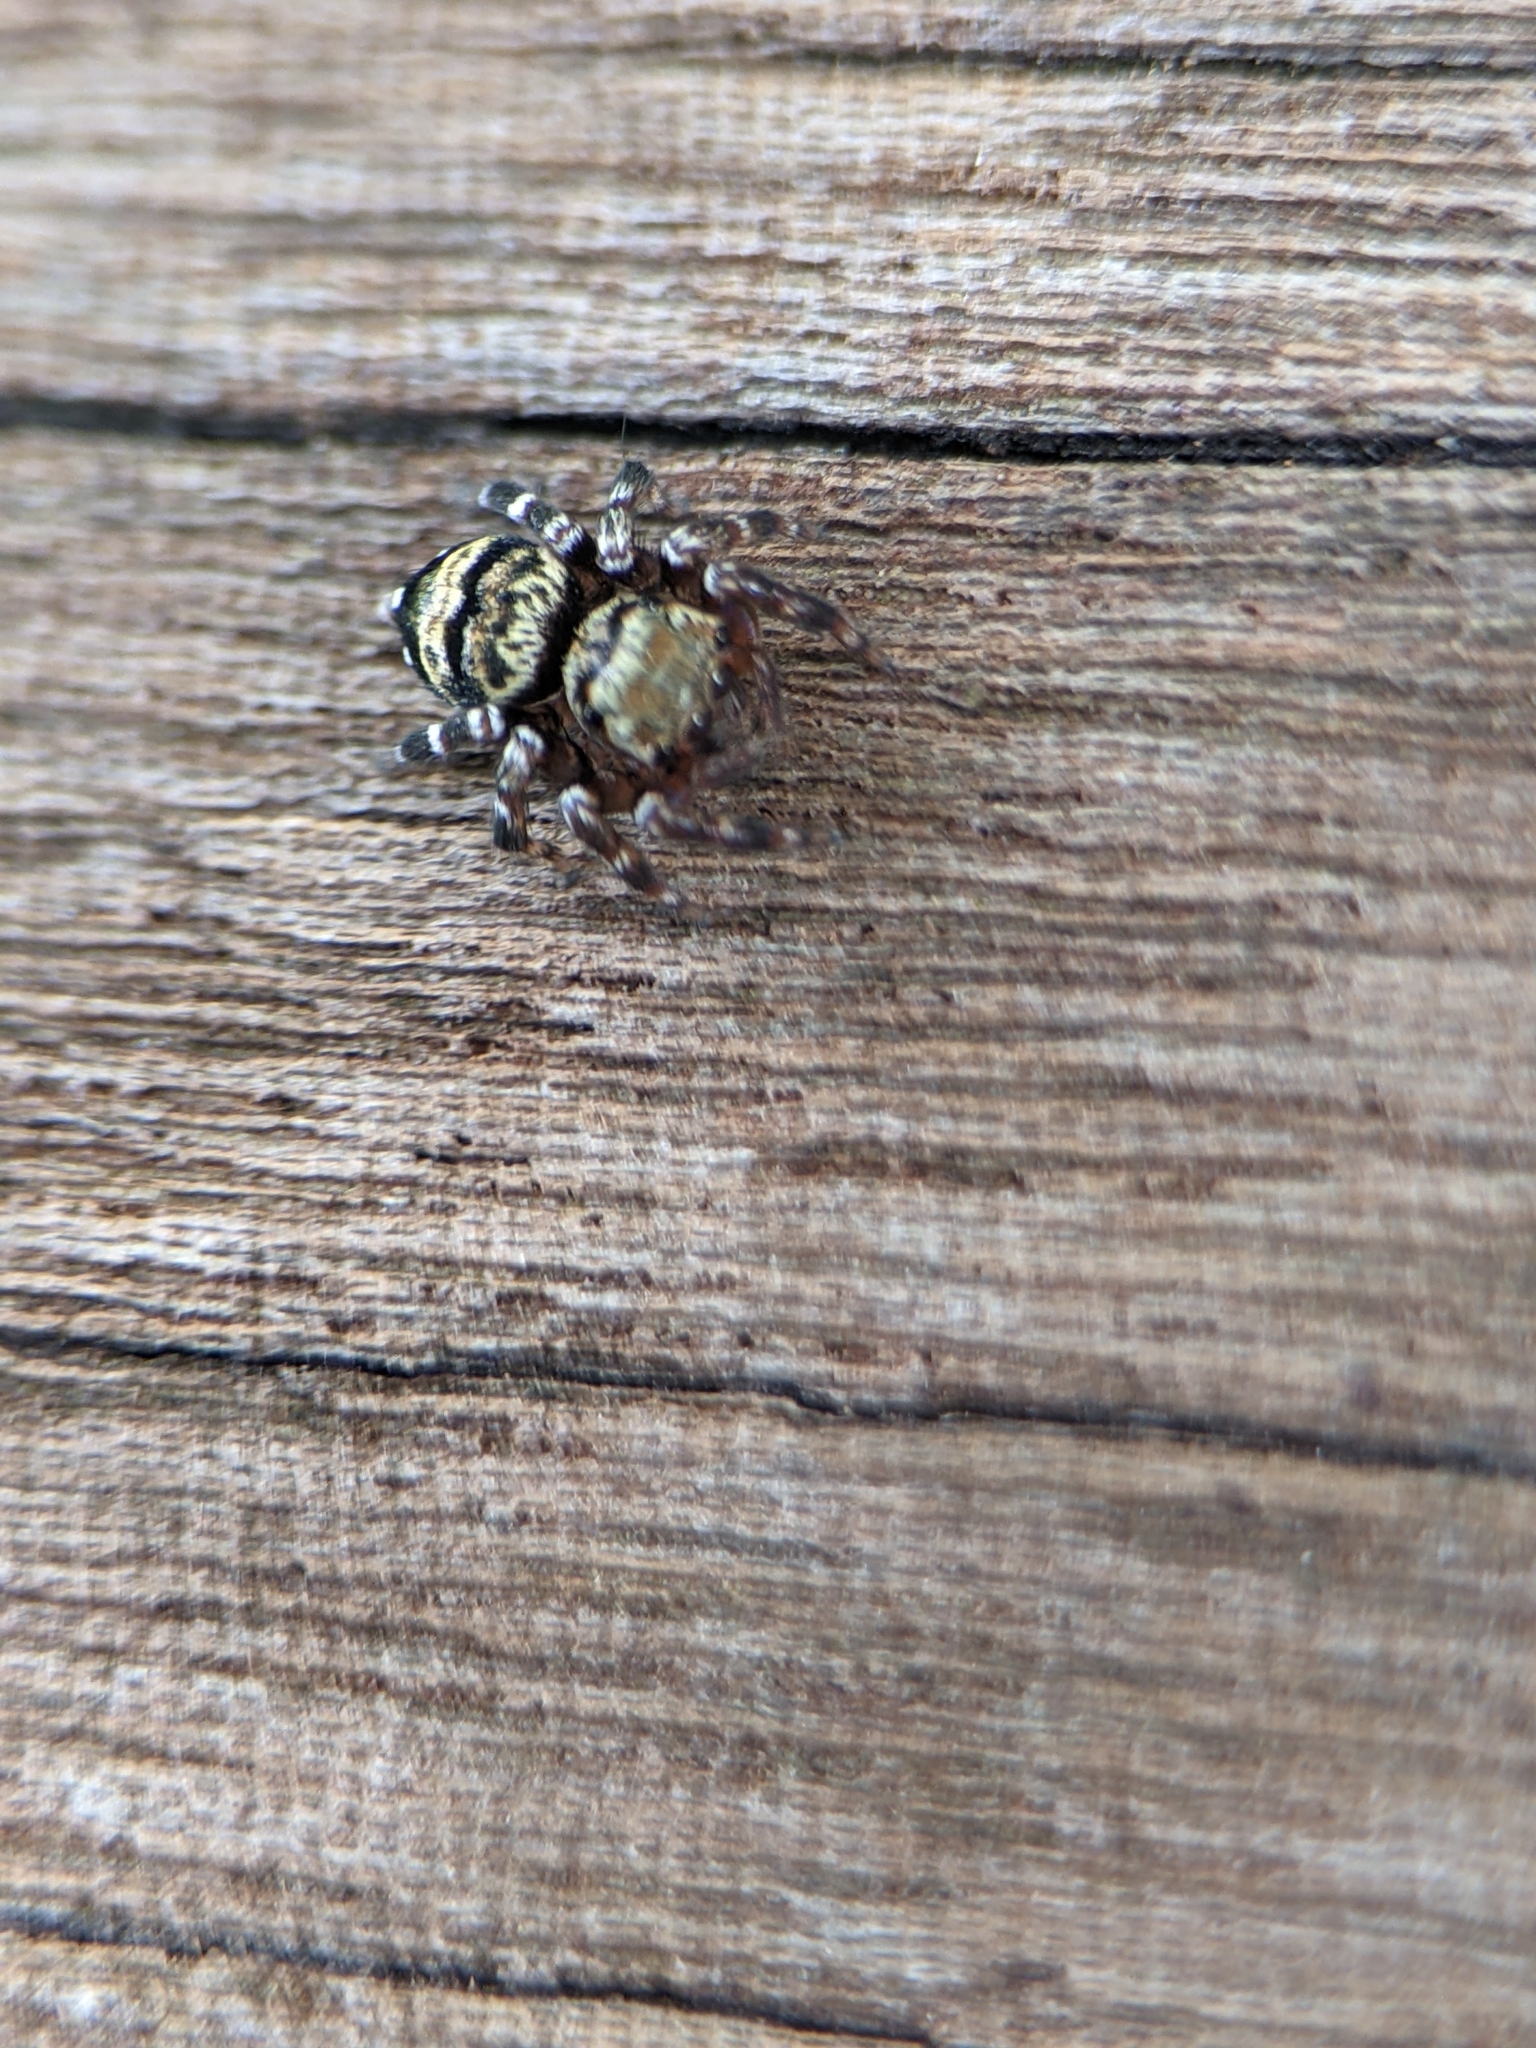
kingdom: Animalia
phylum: Arthropoda
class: Arachnida
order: Araneae
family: Salticidae
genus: Thorelliola
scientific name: Thorelliola ensifera
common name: Jumping spider
